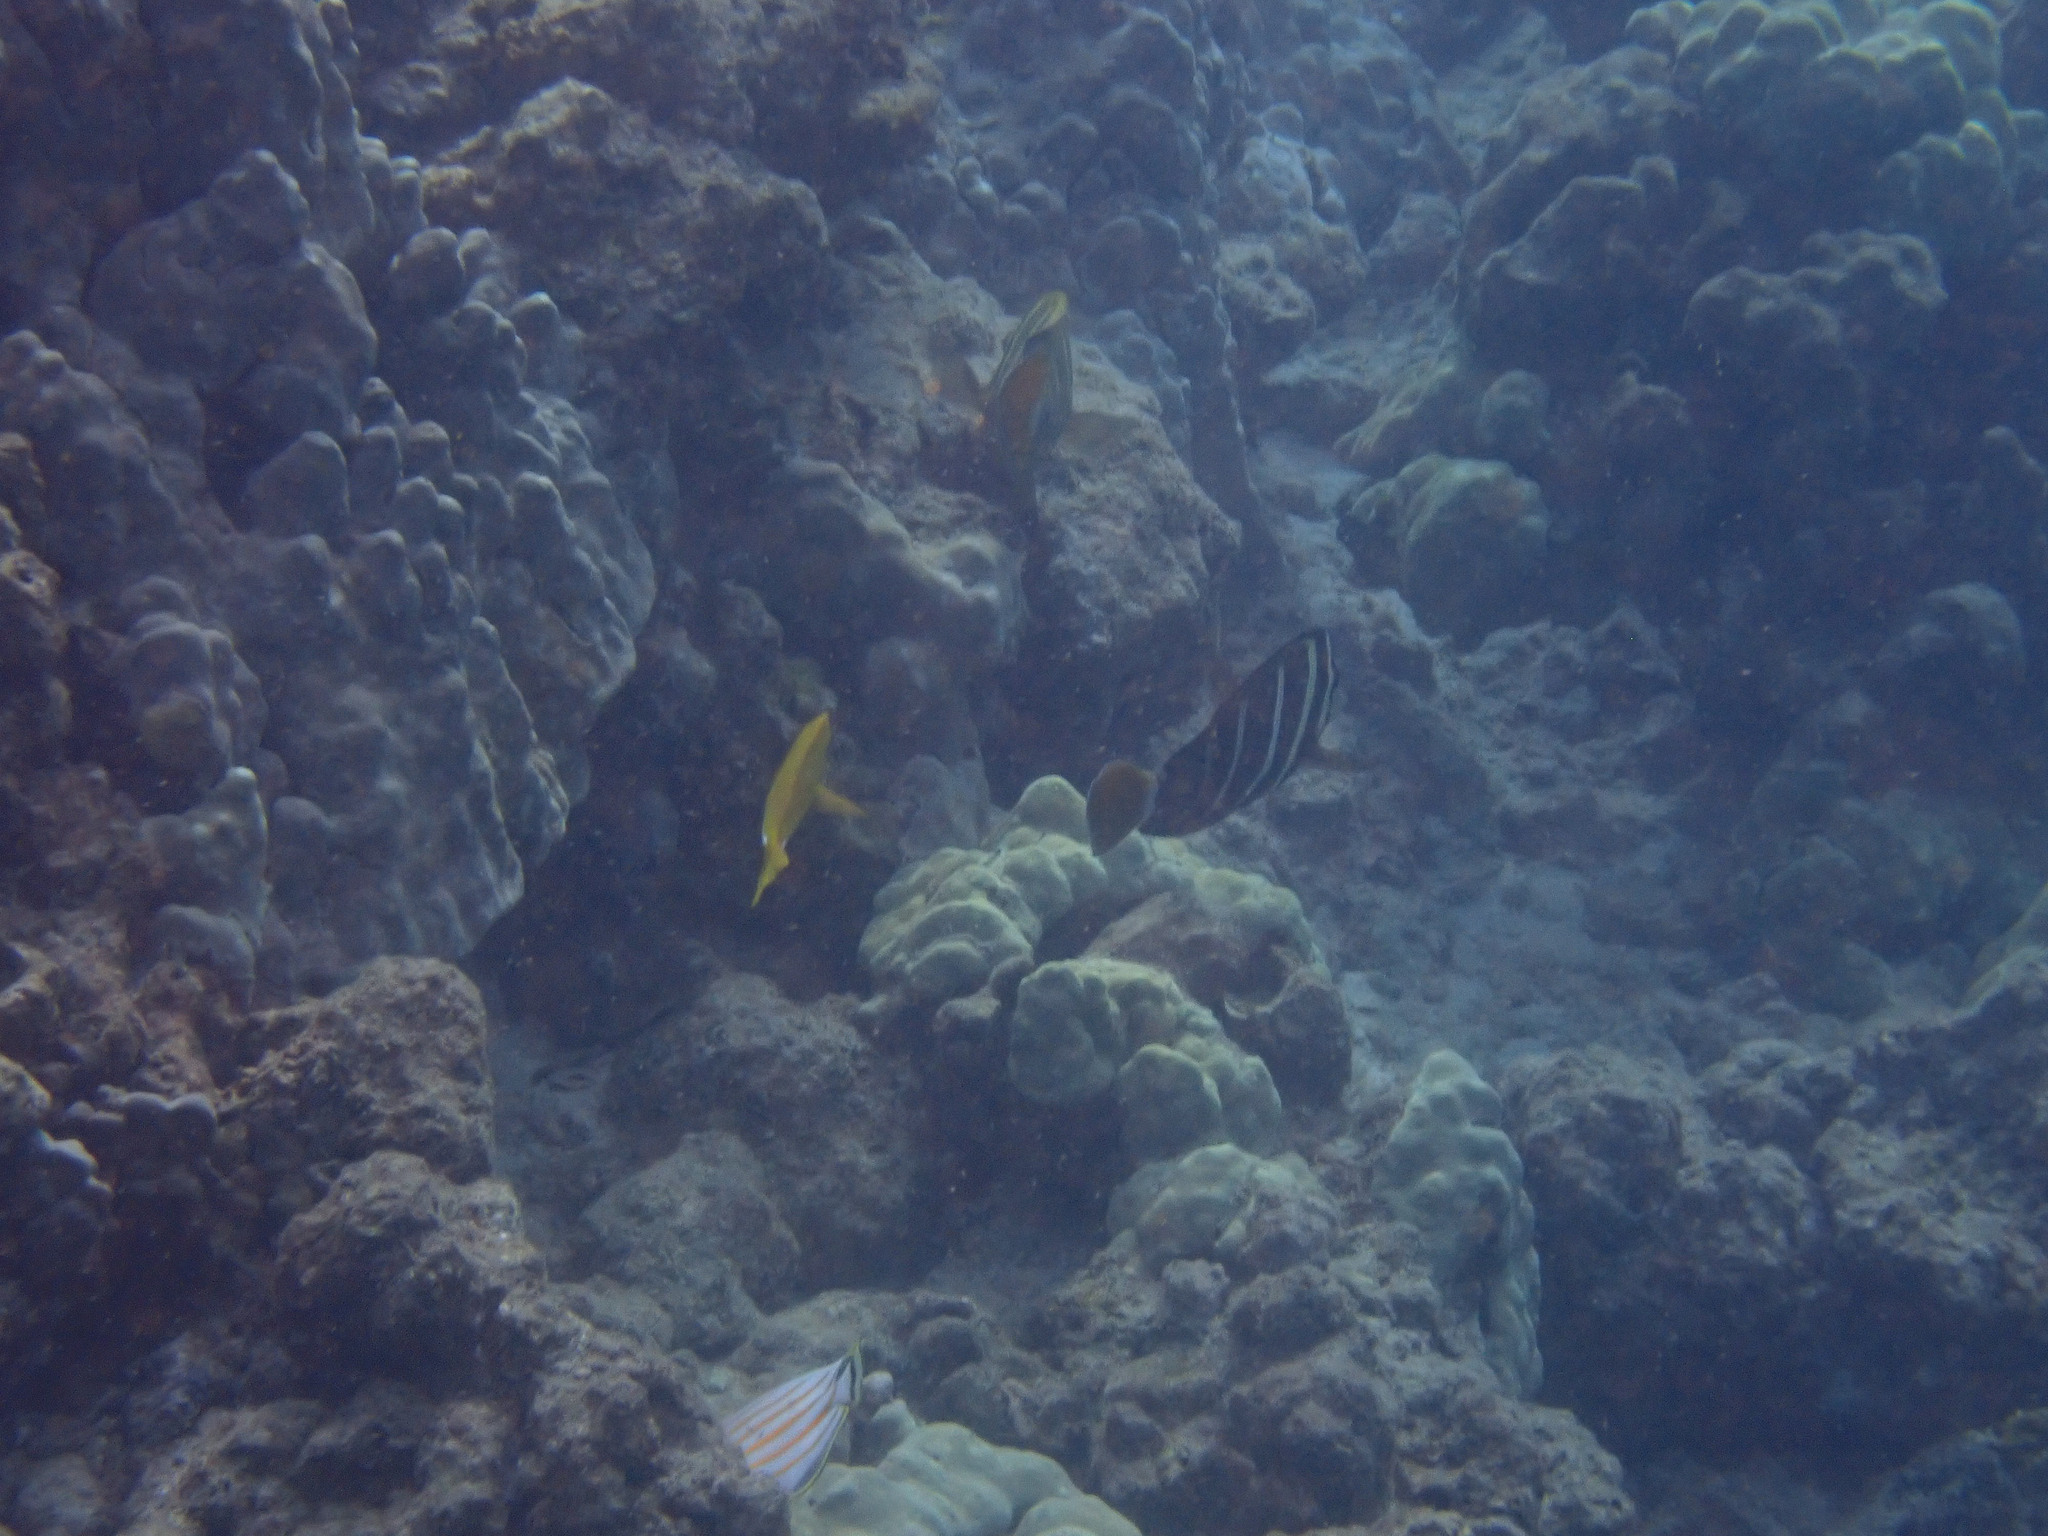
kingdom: Animalia
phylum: Chordata
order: Perciformes
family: Acanthuridae
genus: Zebrasoma
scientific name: Zebrasoma veliferum
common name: Sailfin surgeonfish
